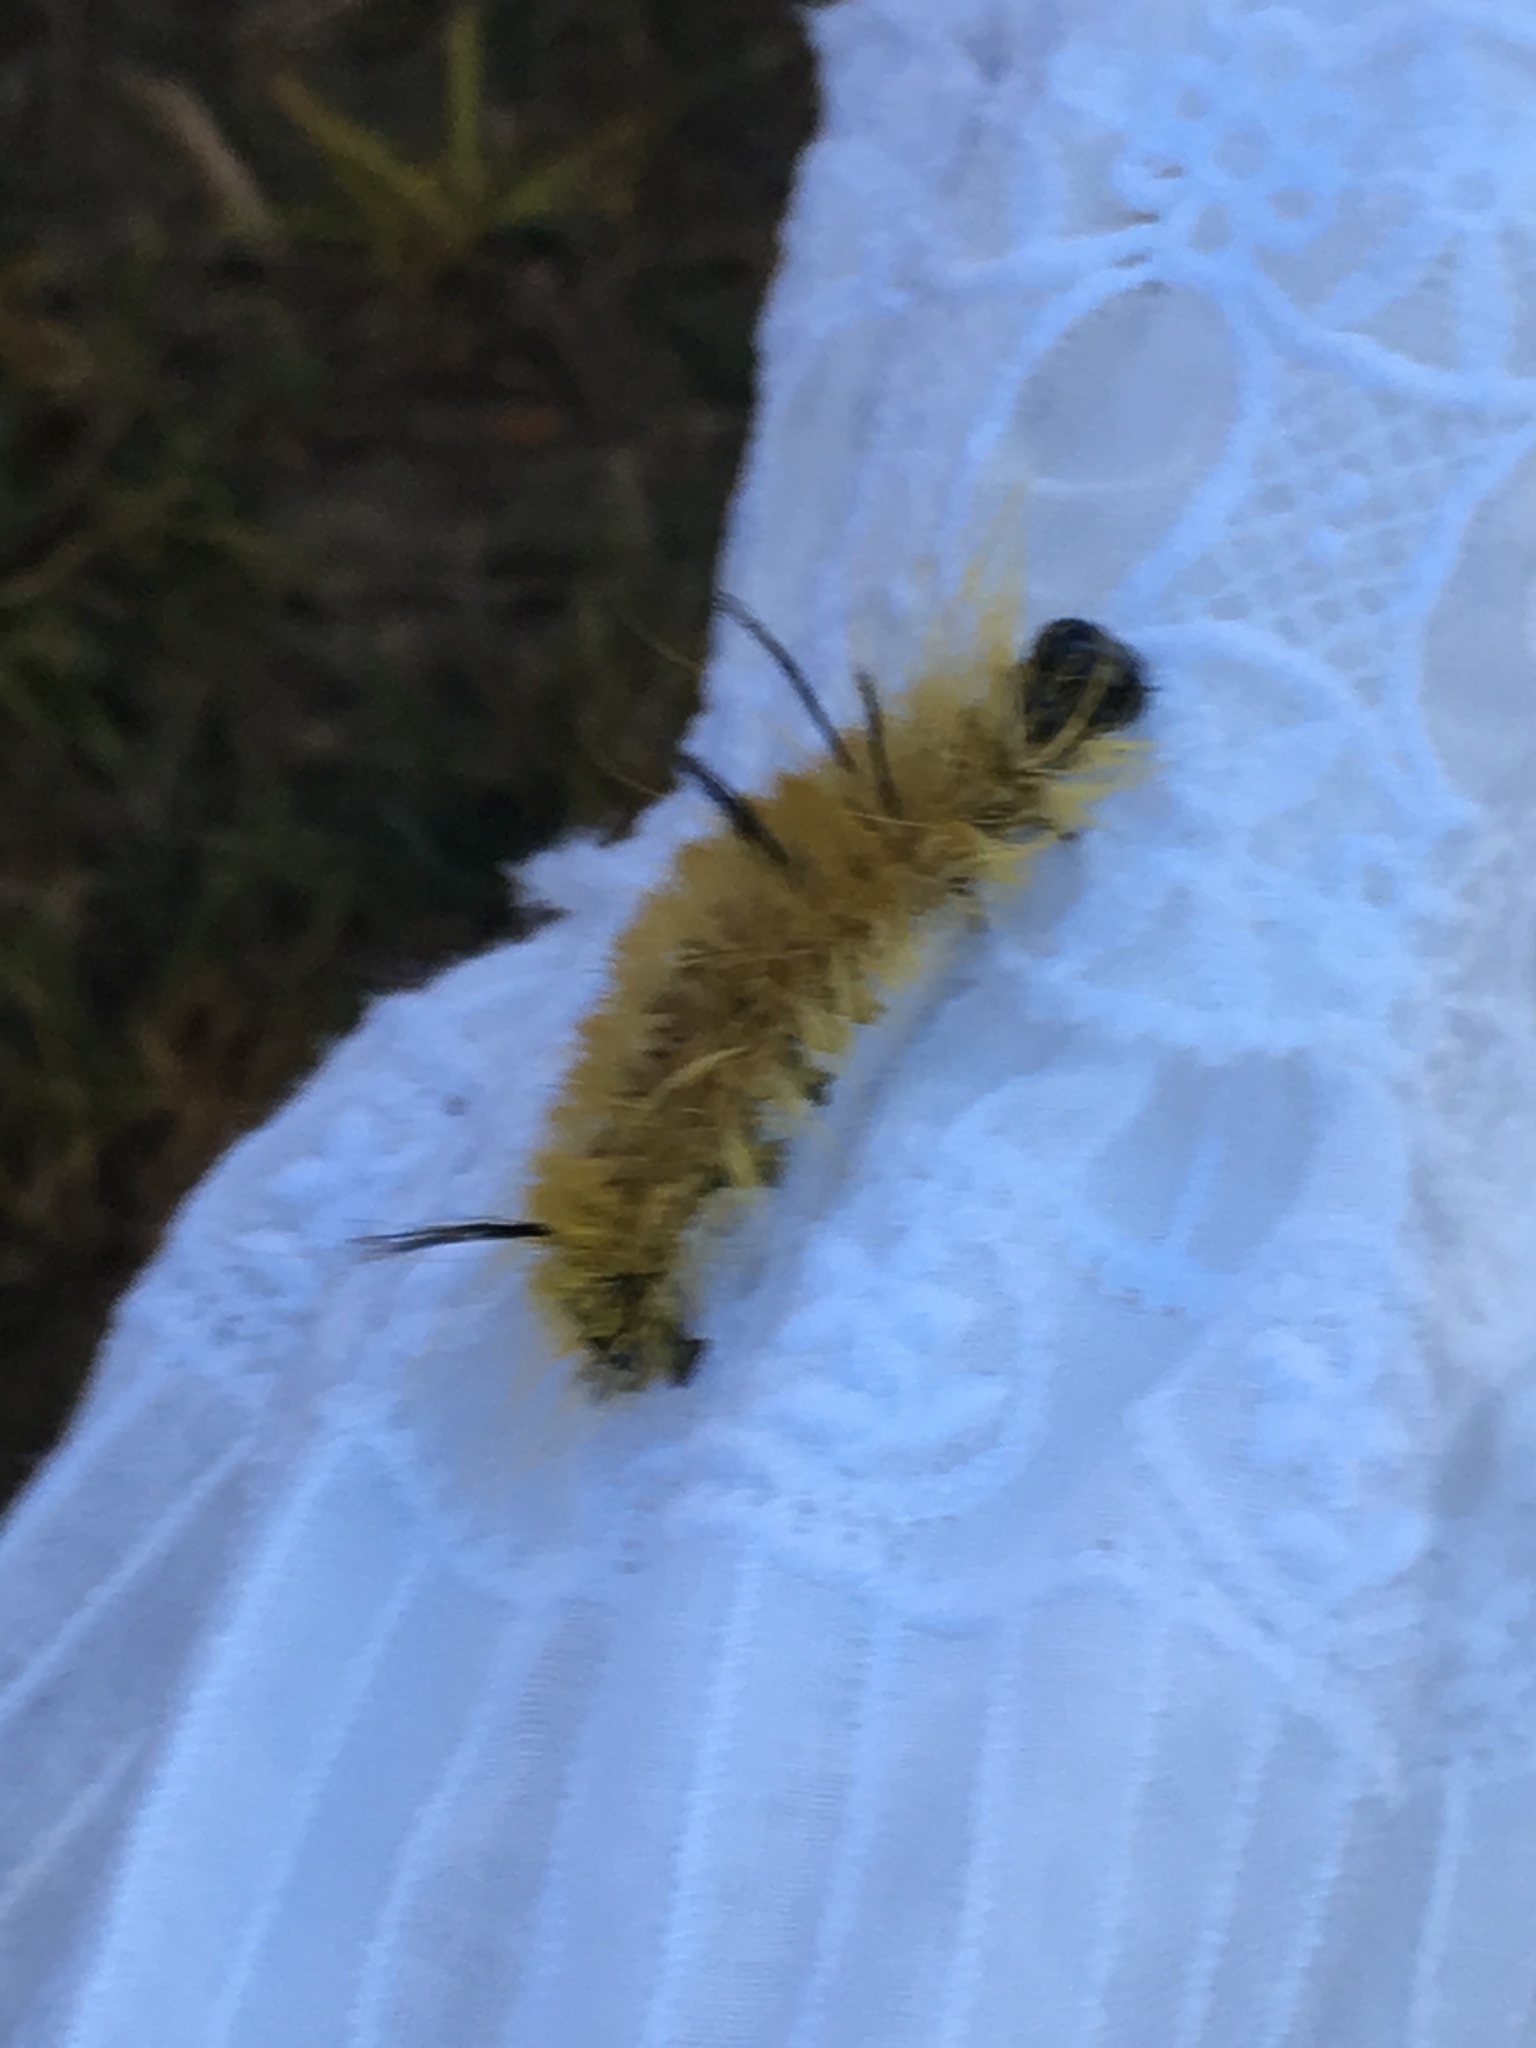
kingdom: Animalia
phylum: Arthropoda
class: Insecta
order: Lepidoptera
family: Noctuidae
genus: Acronicta
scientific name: Acronicta americana
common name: American dagger
